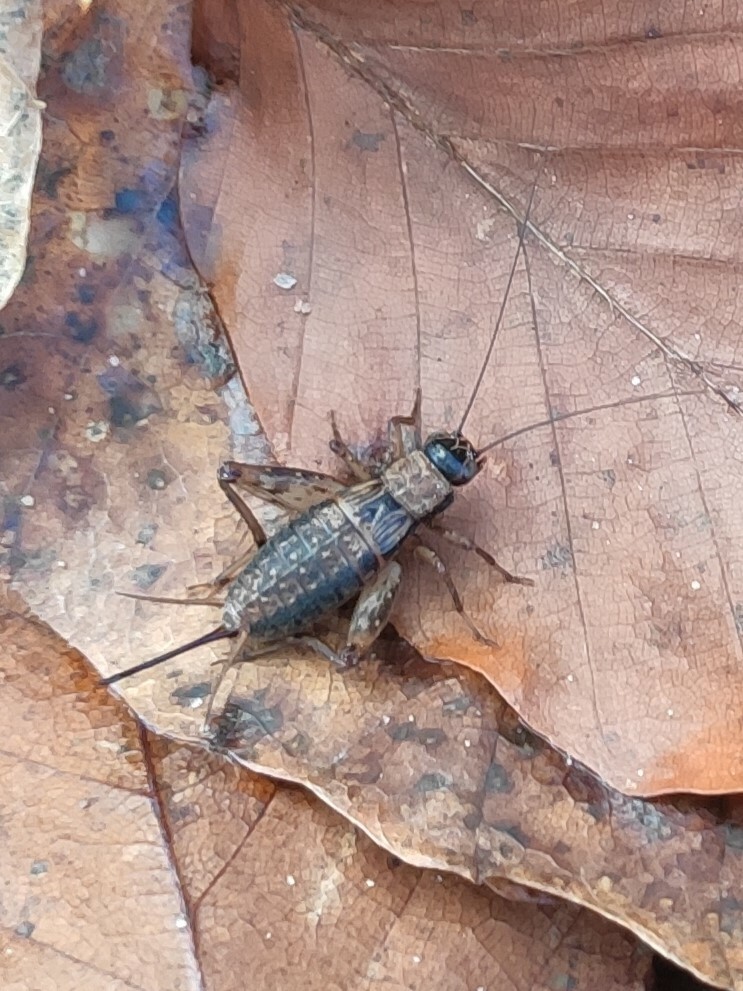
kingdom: Animalia
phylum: Arthropoda
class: Insecta
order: Orthoptera
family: Trigonidiidae
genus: Nemobius
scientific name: Nemobius sylvestris
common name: Wood-cricket
